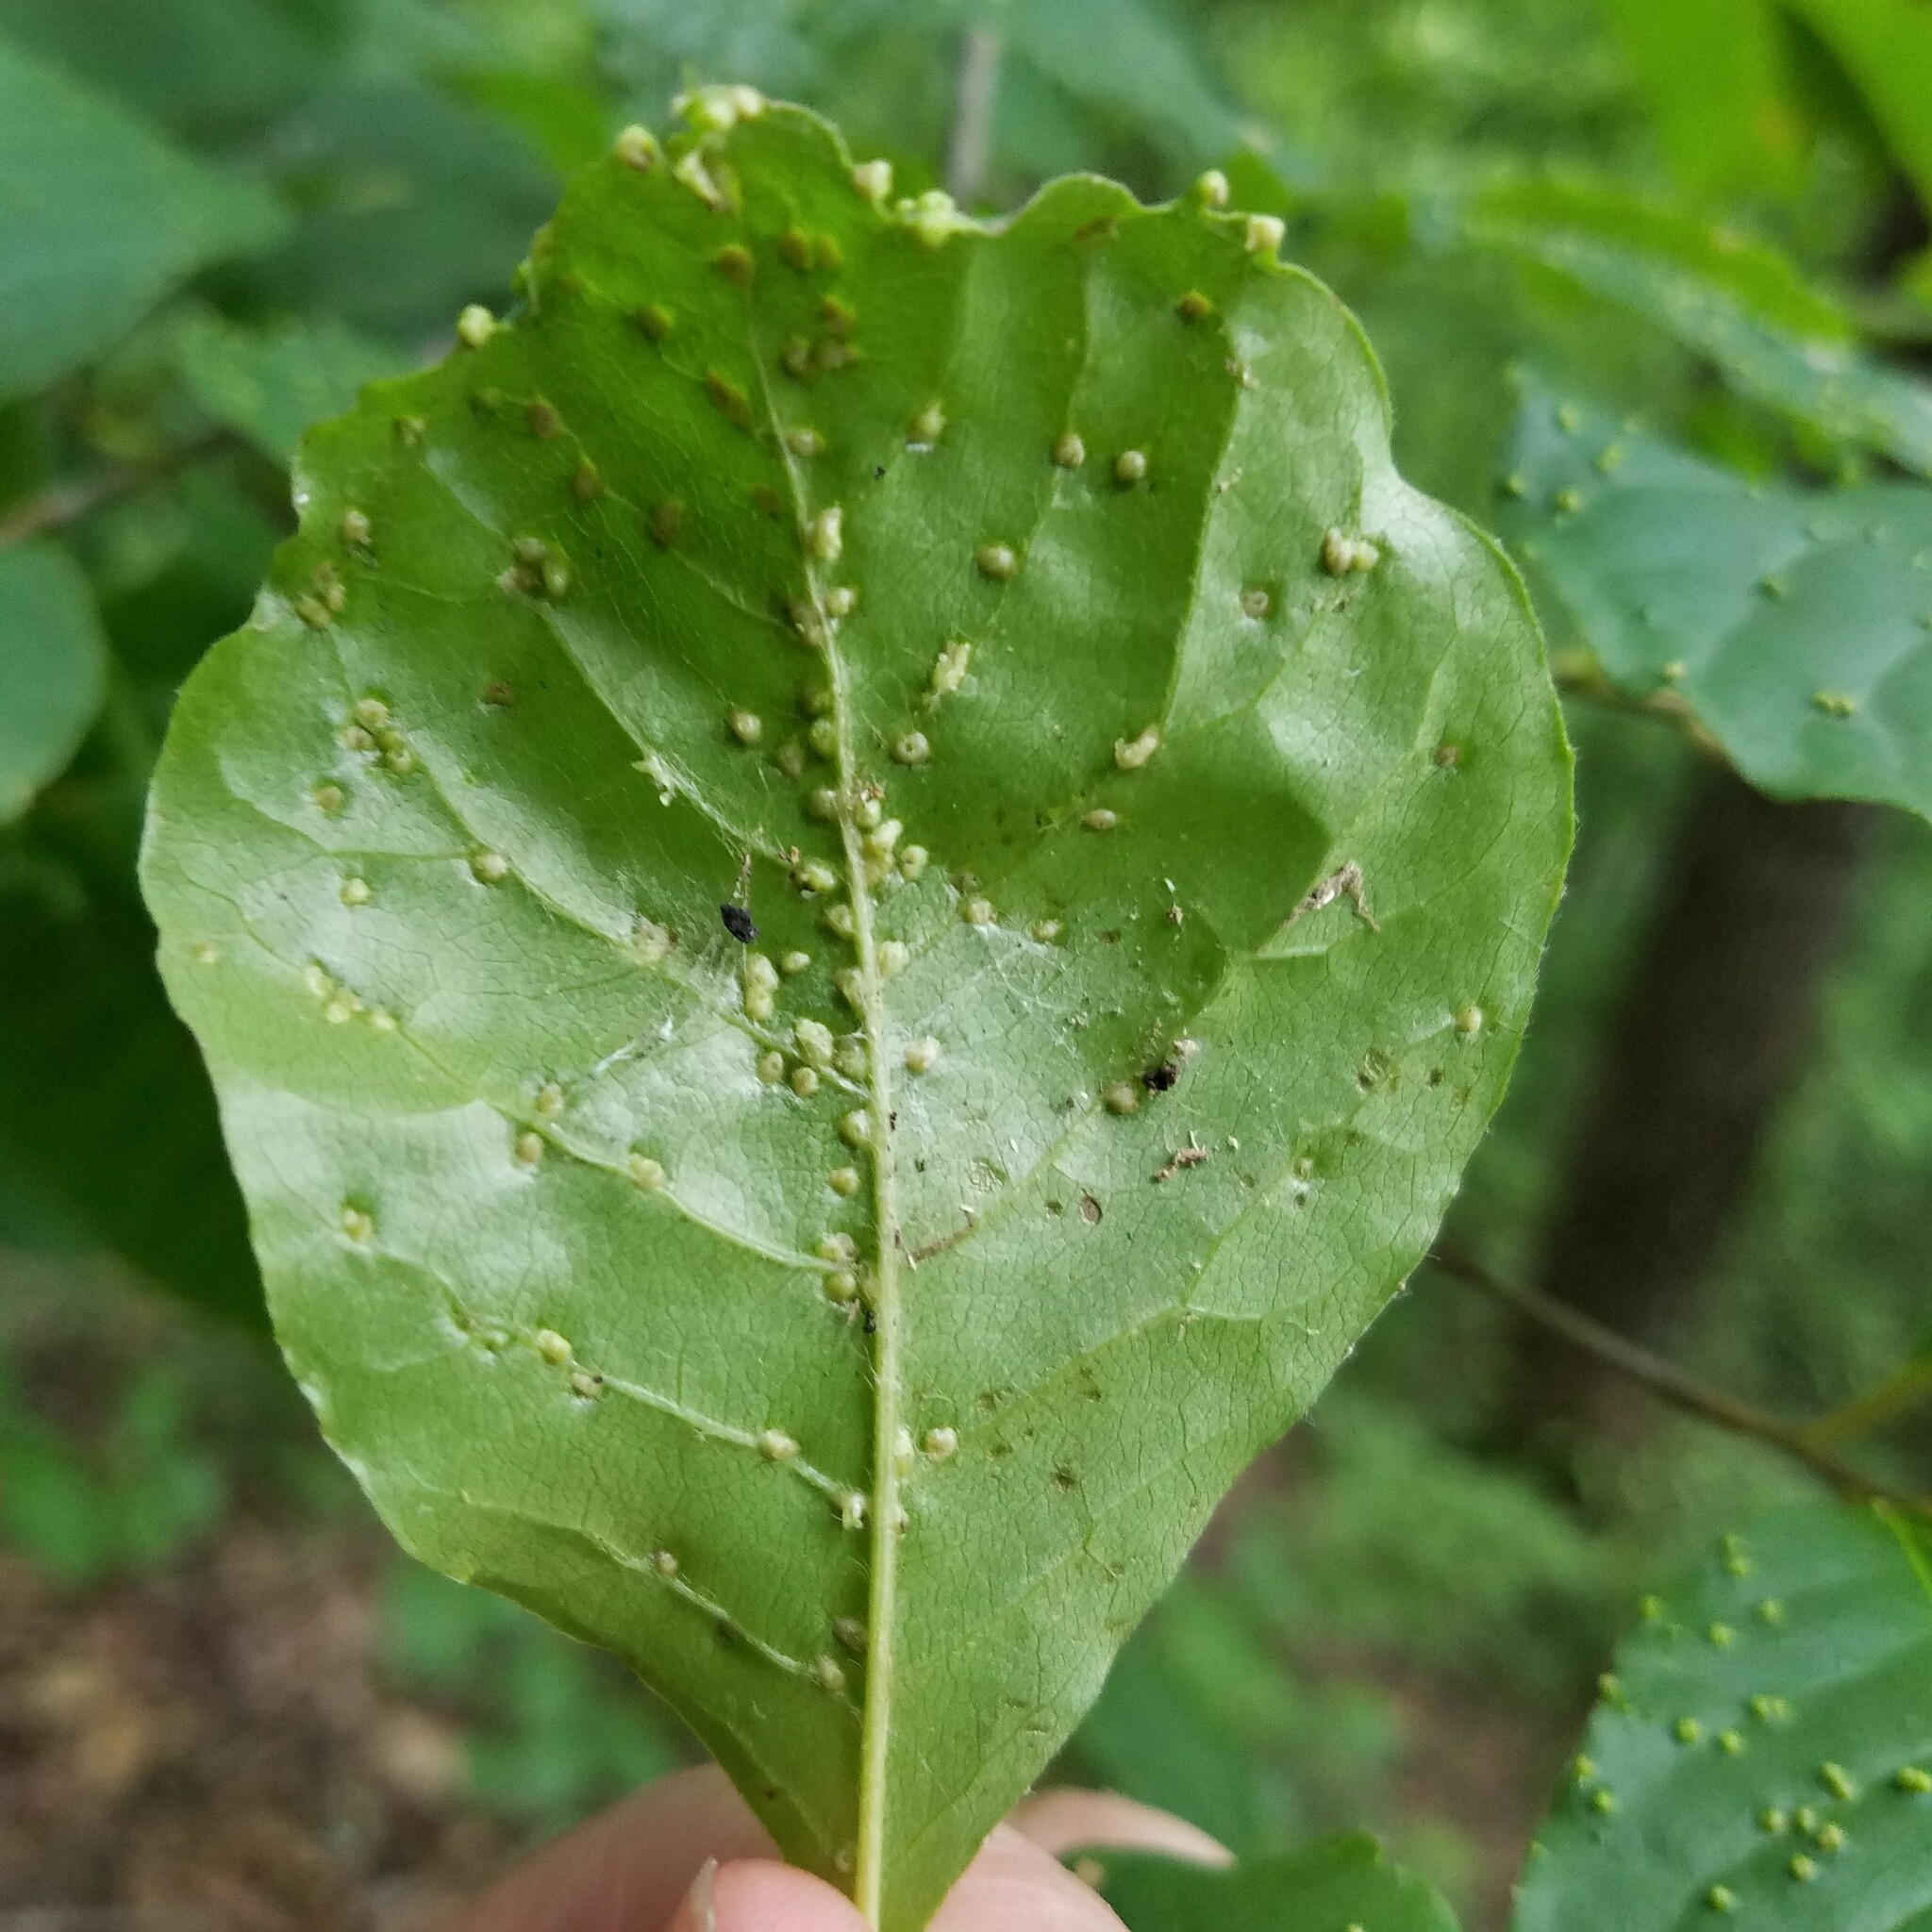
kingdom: Animalia
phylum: Arthropoda
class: Arachnida
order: Trombidiformes
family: Eriophyidae
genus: Aceria
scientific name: Aceria
